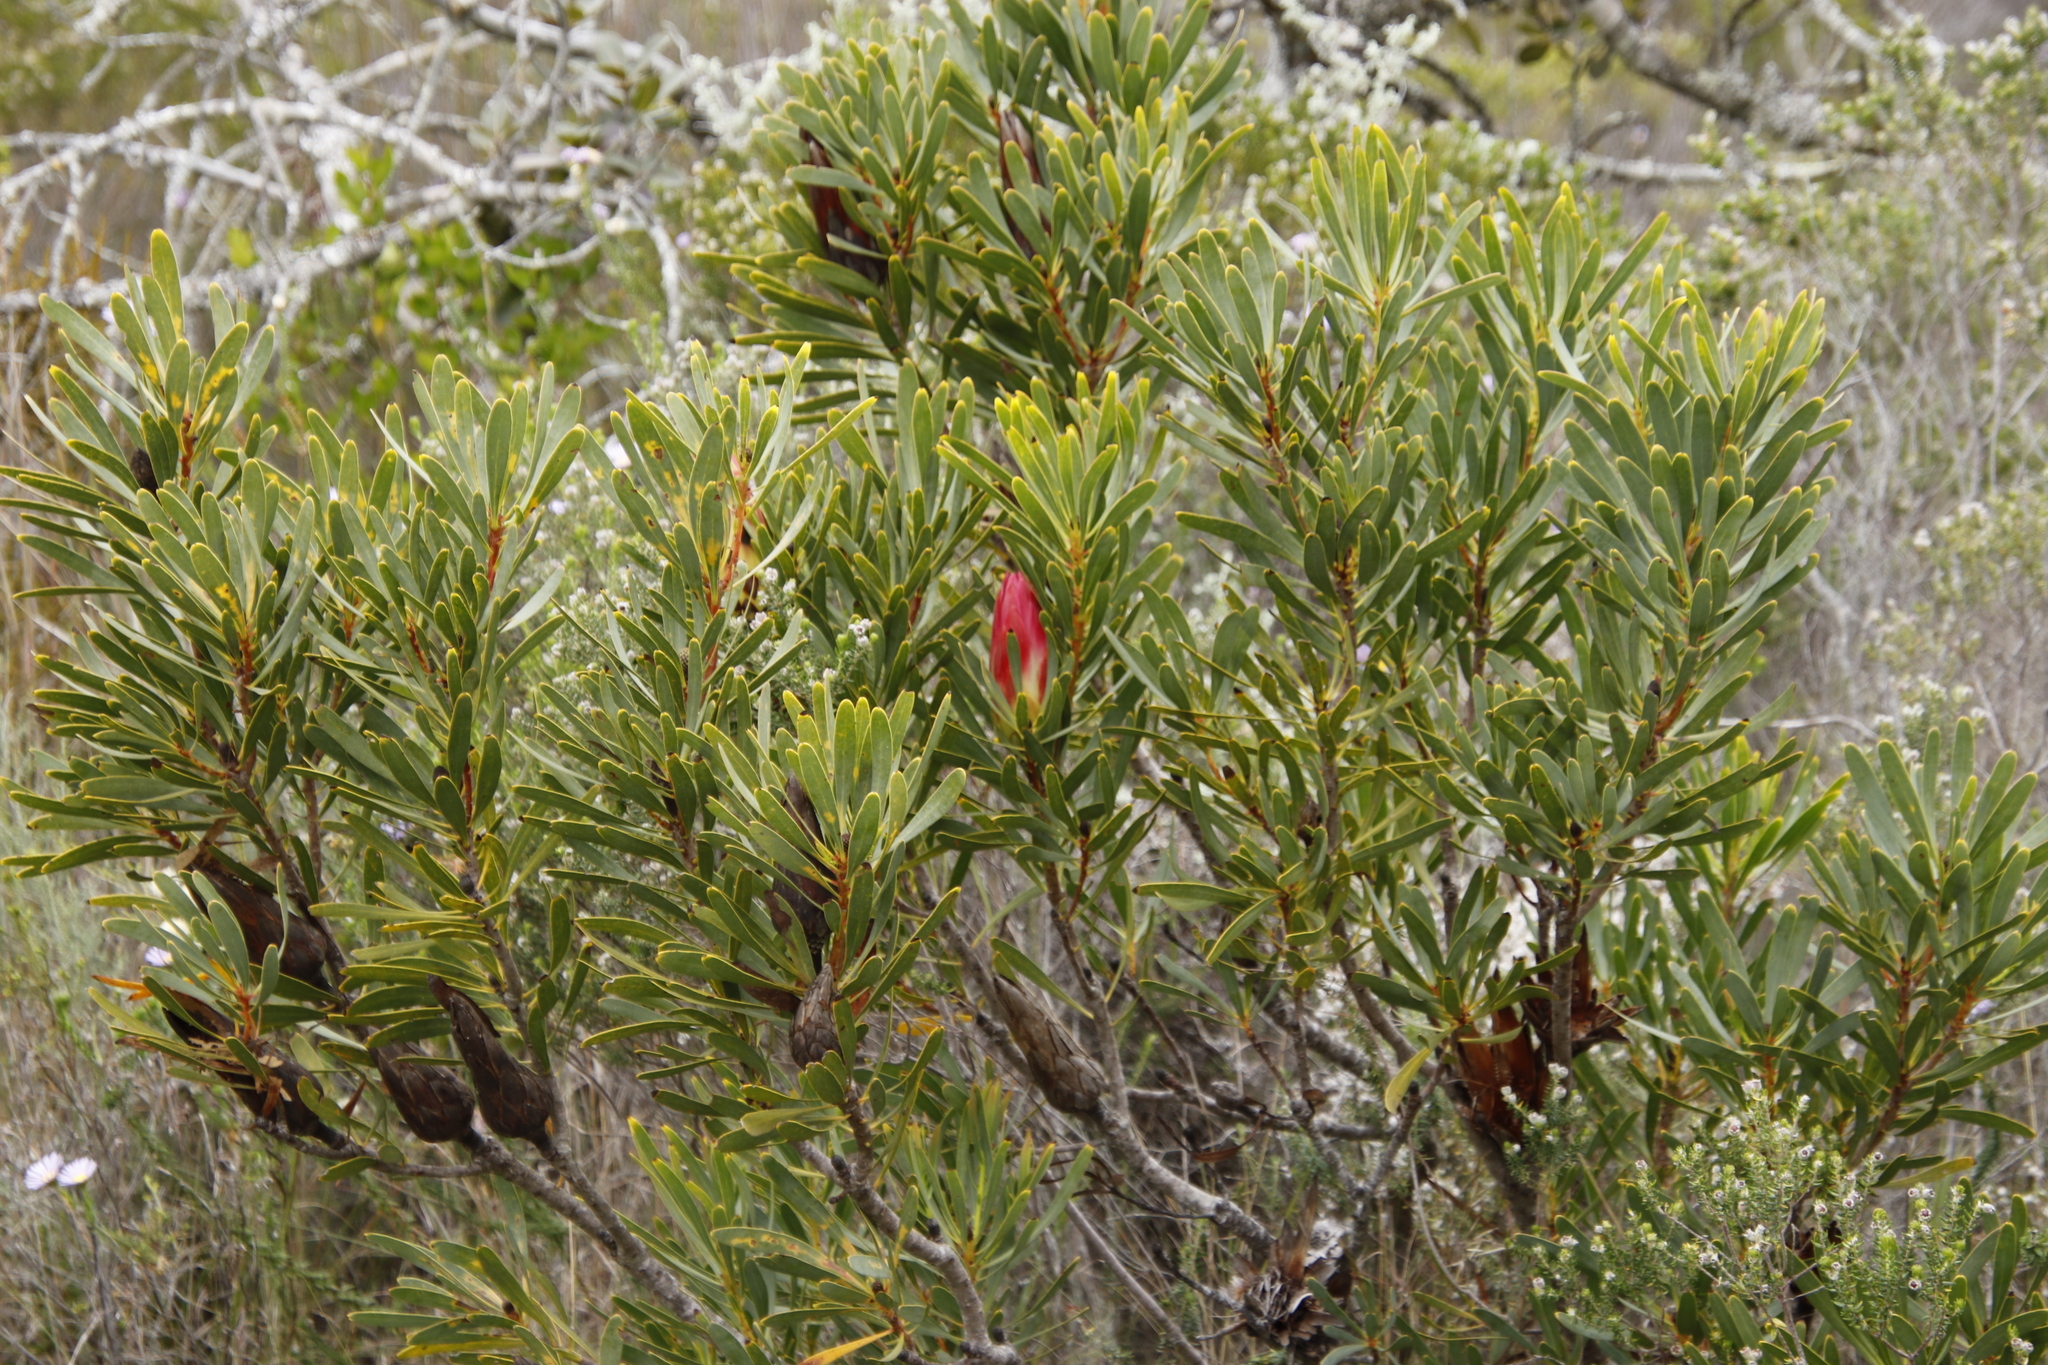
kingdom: Plantae
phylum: Tracheophyta
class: Magnoliopsida
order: Proteales
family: Proteaceae
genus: Protea
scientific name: Protea repens
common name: Sugarbush
